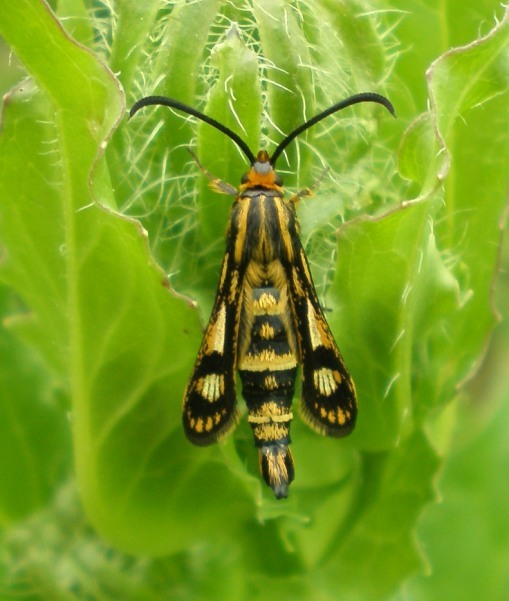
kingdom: Animalia
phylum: Arthropoda
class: Insecta
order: Lepidoptera
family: Sesiidae
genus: Chamaesphecia
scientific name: Chamaesphecia empiformis
